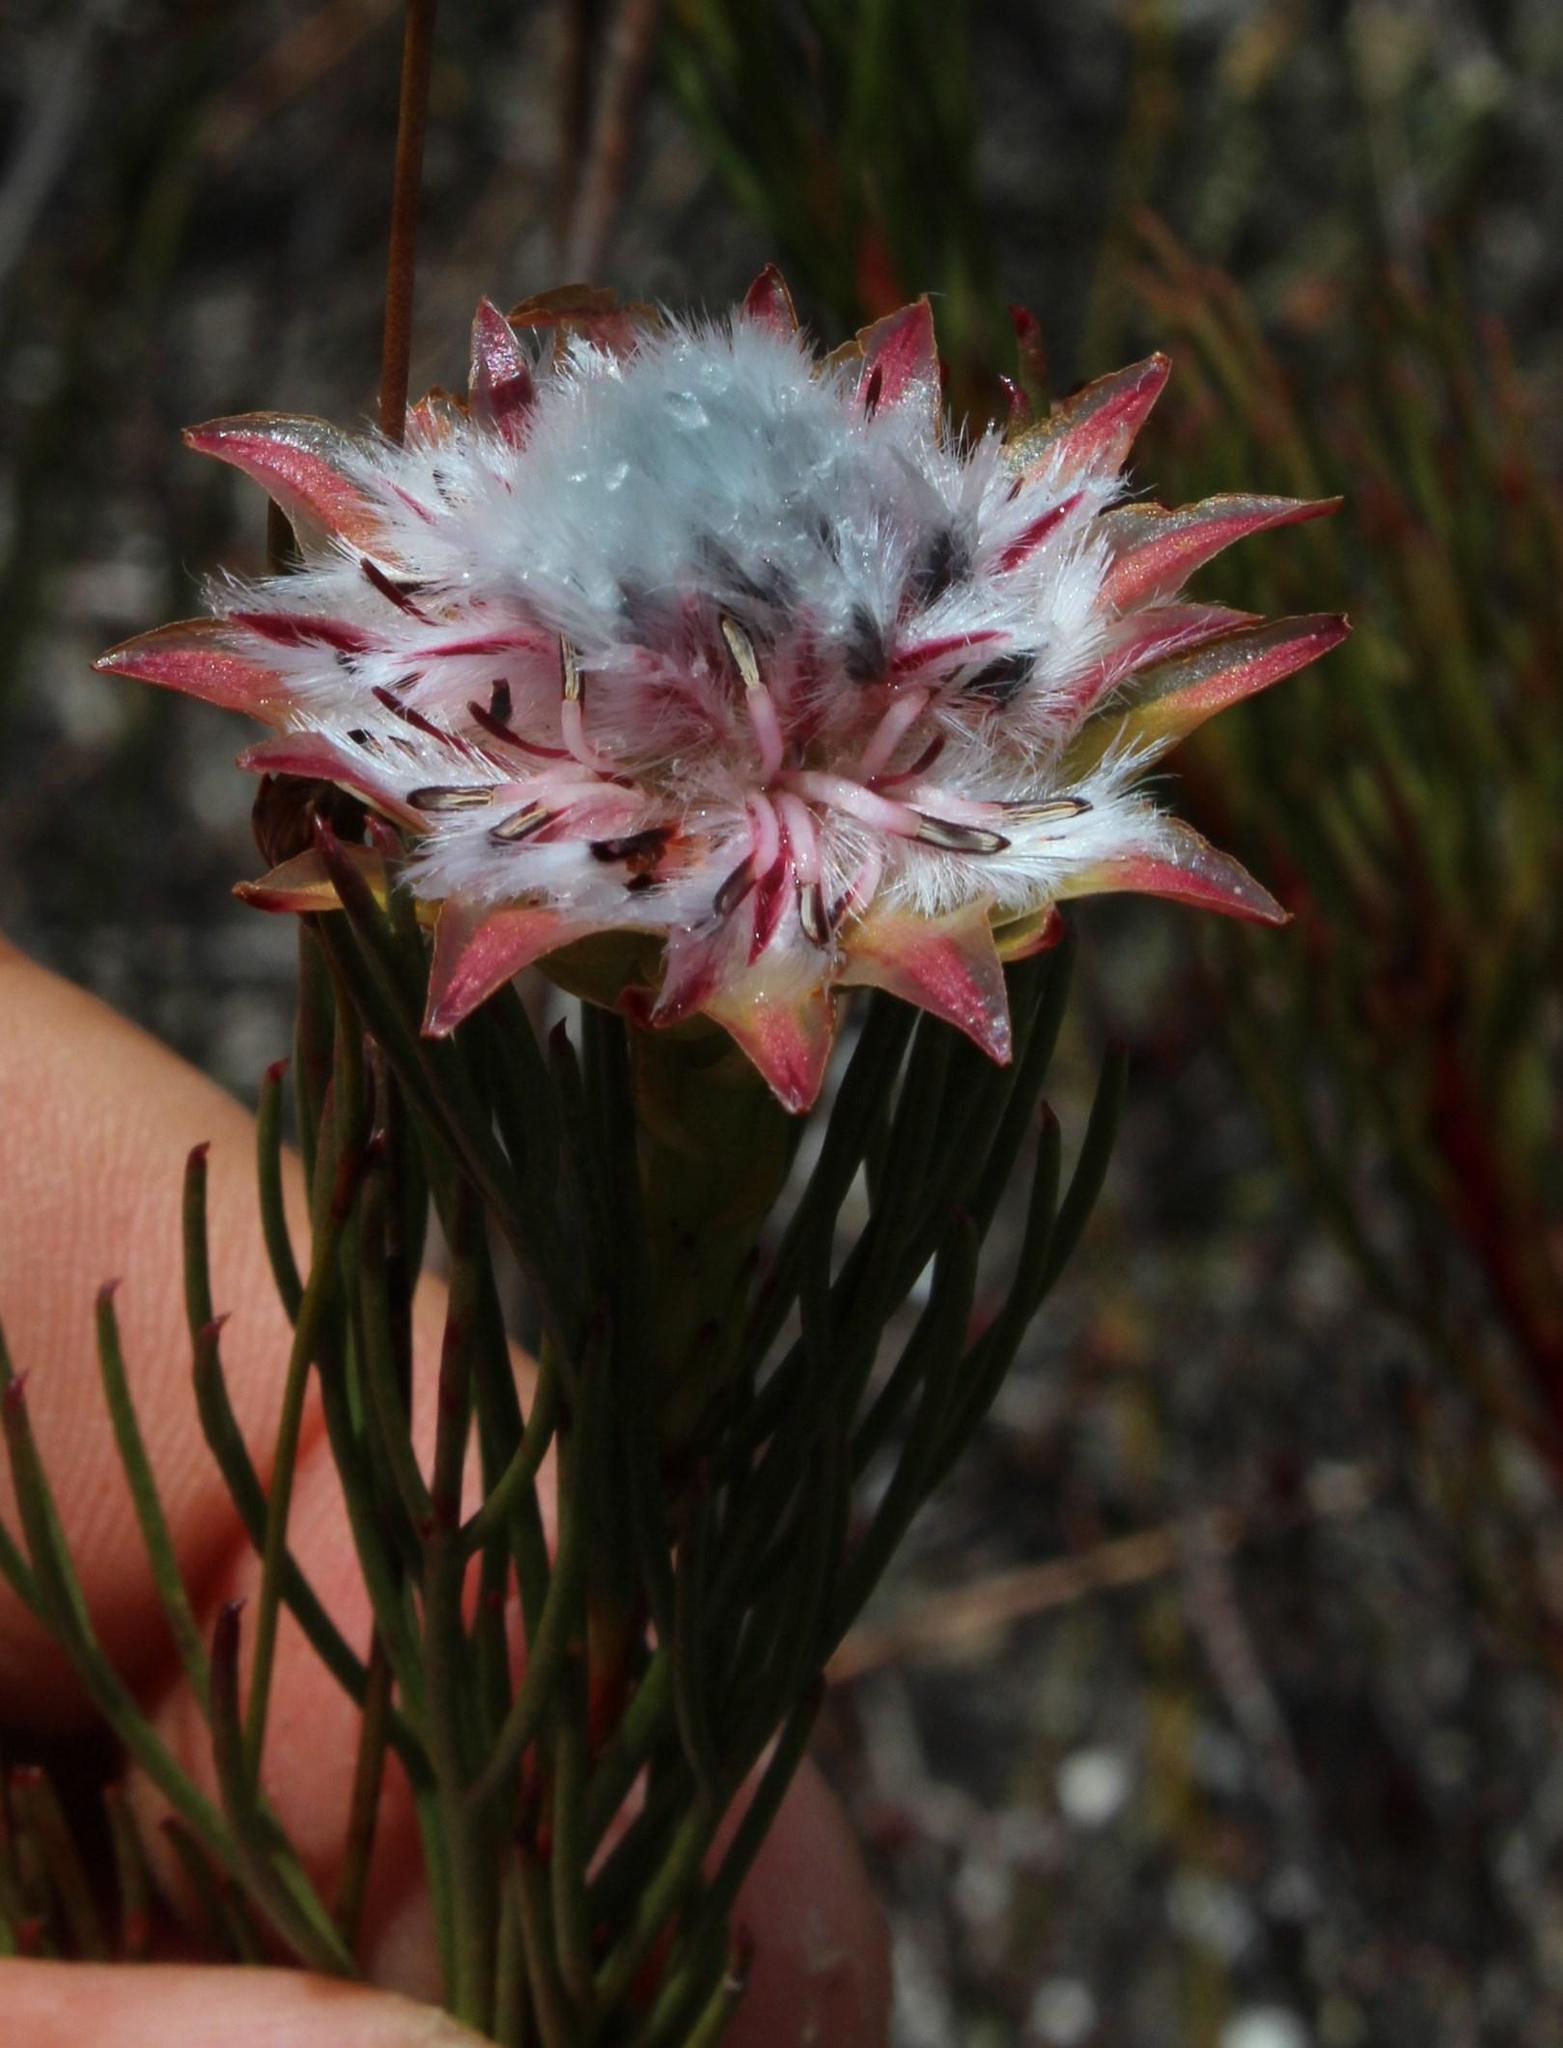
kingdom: Plantae
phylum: Tracheophyta
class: Magnoliopsida
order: Proteales
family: Proteaceae
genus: Serruria
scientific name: Serruria phylicoides
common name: Bearded spiderhead
